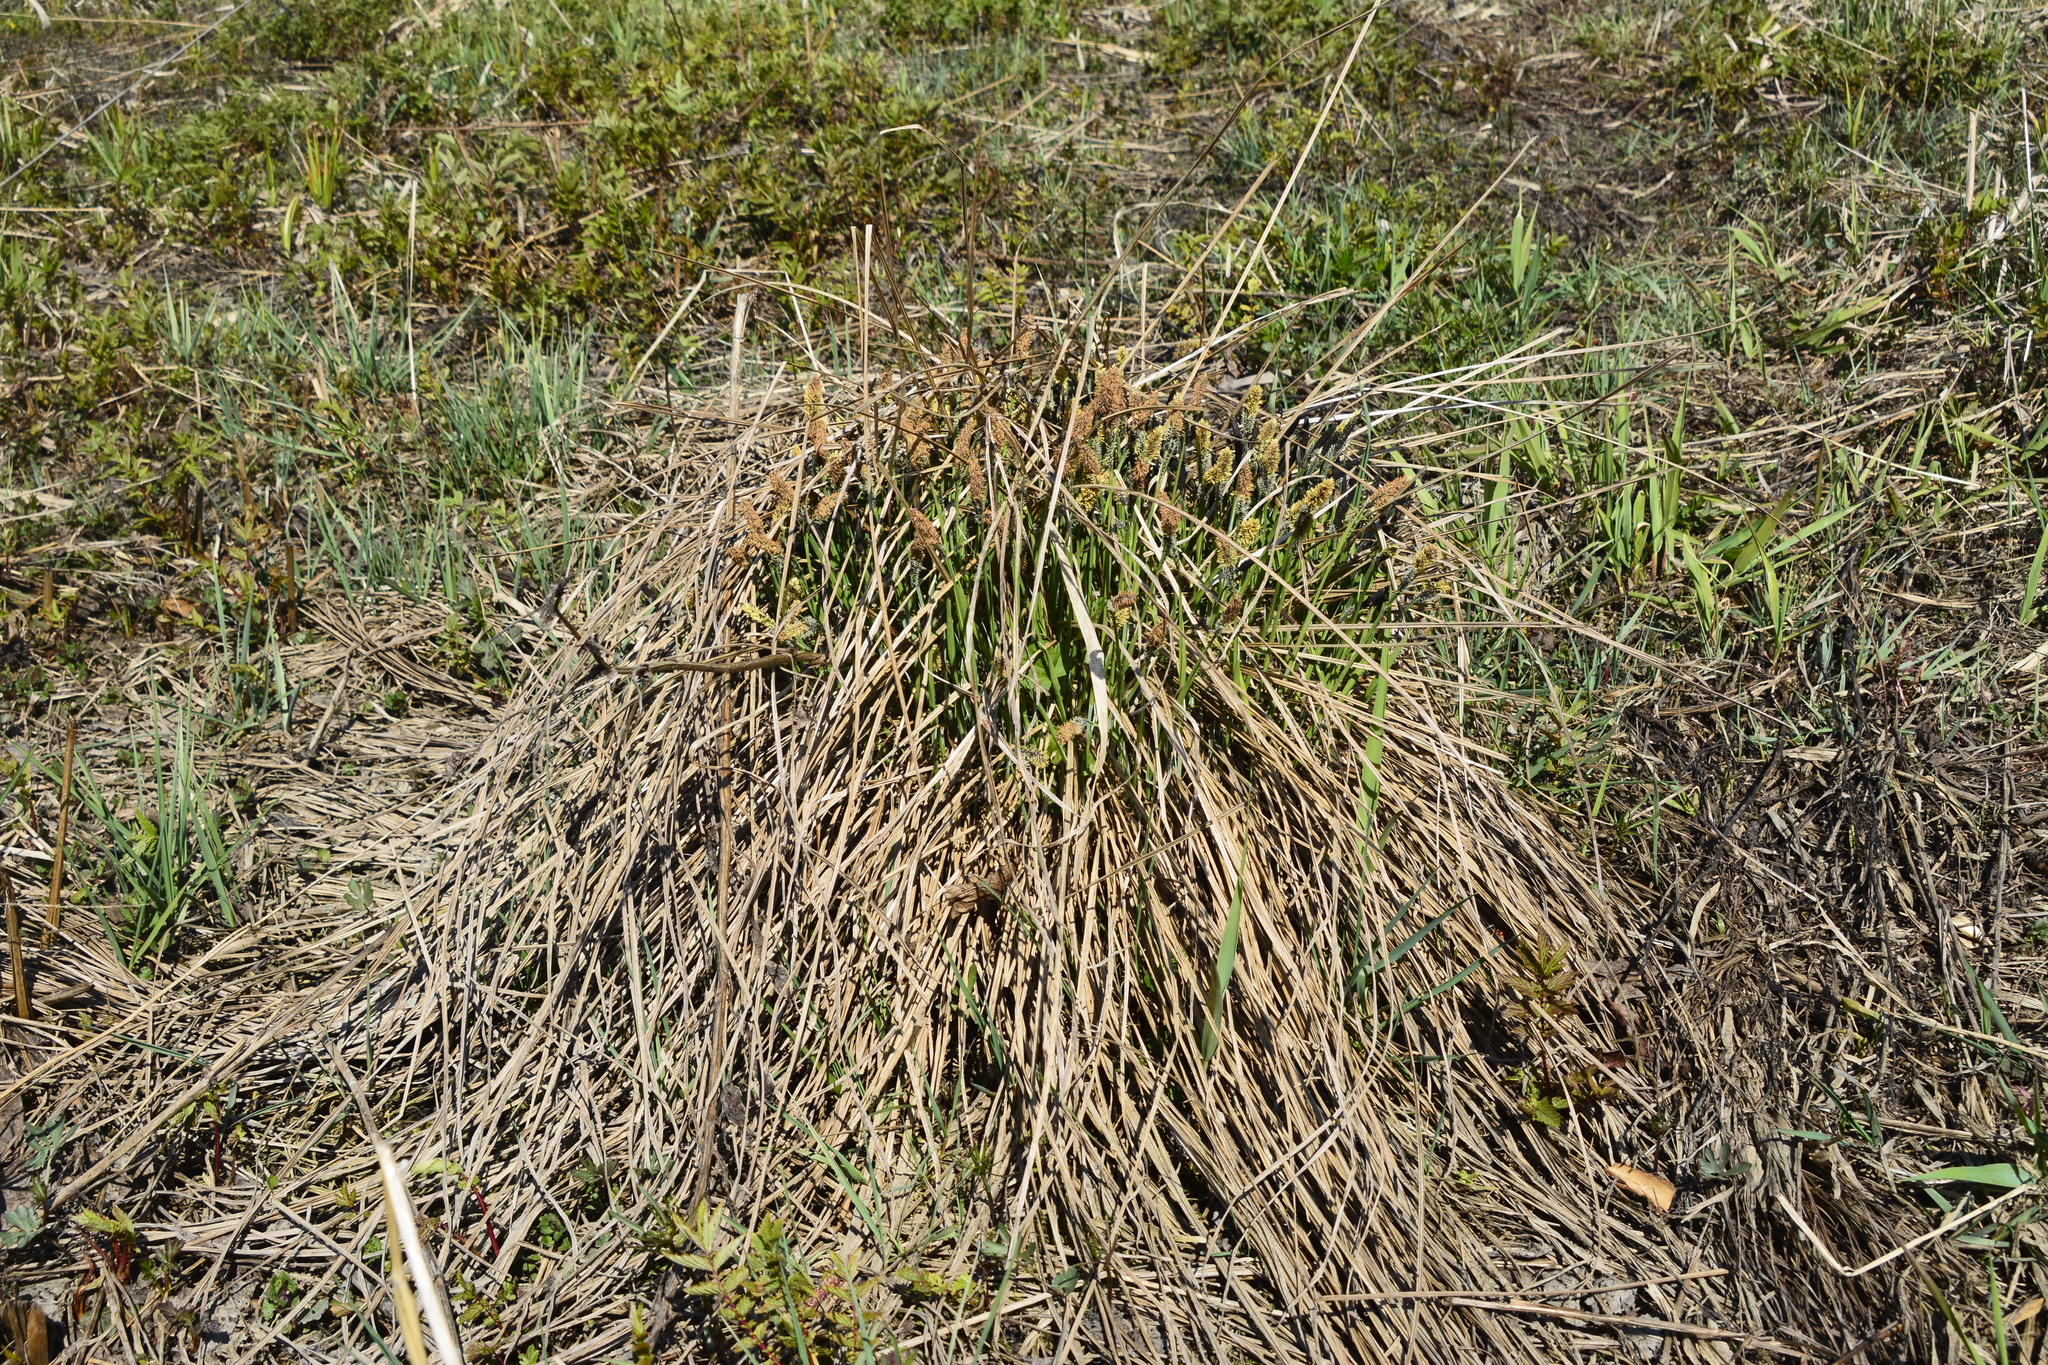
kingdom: Plantae
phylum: Tracheophyta
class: Liliopsida
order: Poales
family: Cyperaceae
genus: Carex
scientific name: Carex cespitosa
